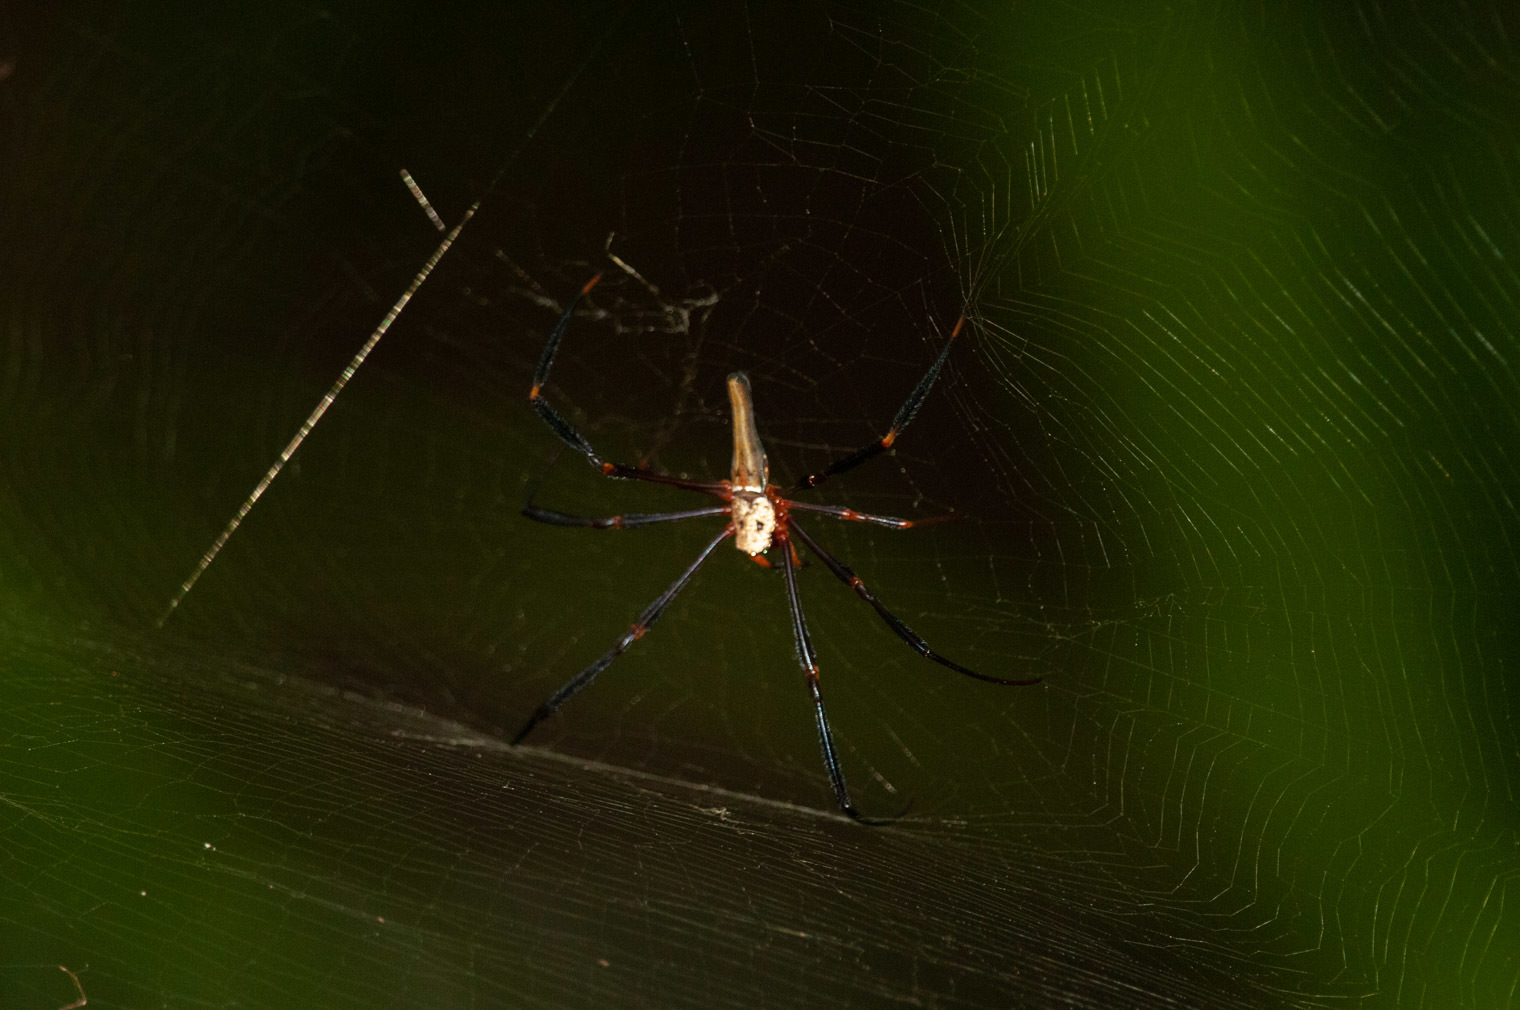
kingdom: Animalia
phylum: Arthropoda
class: Arachnida
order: Araneae
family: Araneidae
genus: Nephila
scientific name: Nephila pilipes
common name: Giant golden orb weaver
